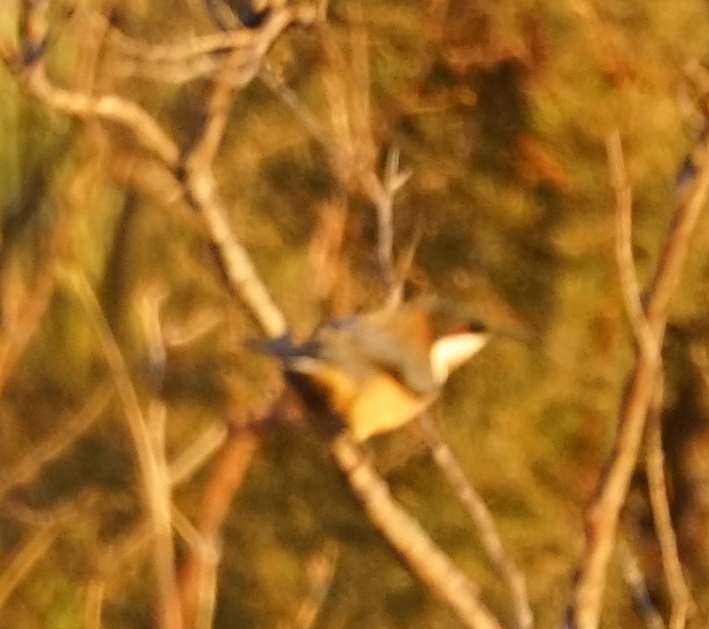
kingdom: Animalia
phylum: Chordata
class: Aves
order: Passeriformes
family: Meliphagidae
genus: Acanthorhynchus
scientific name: Acanthorhynchus tenuirostris
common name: Eastern spinebill
